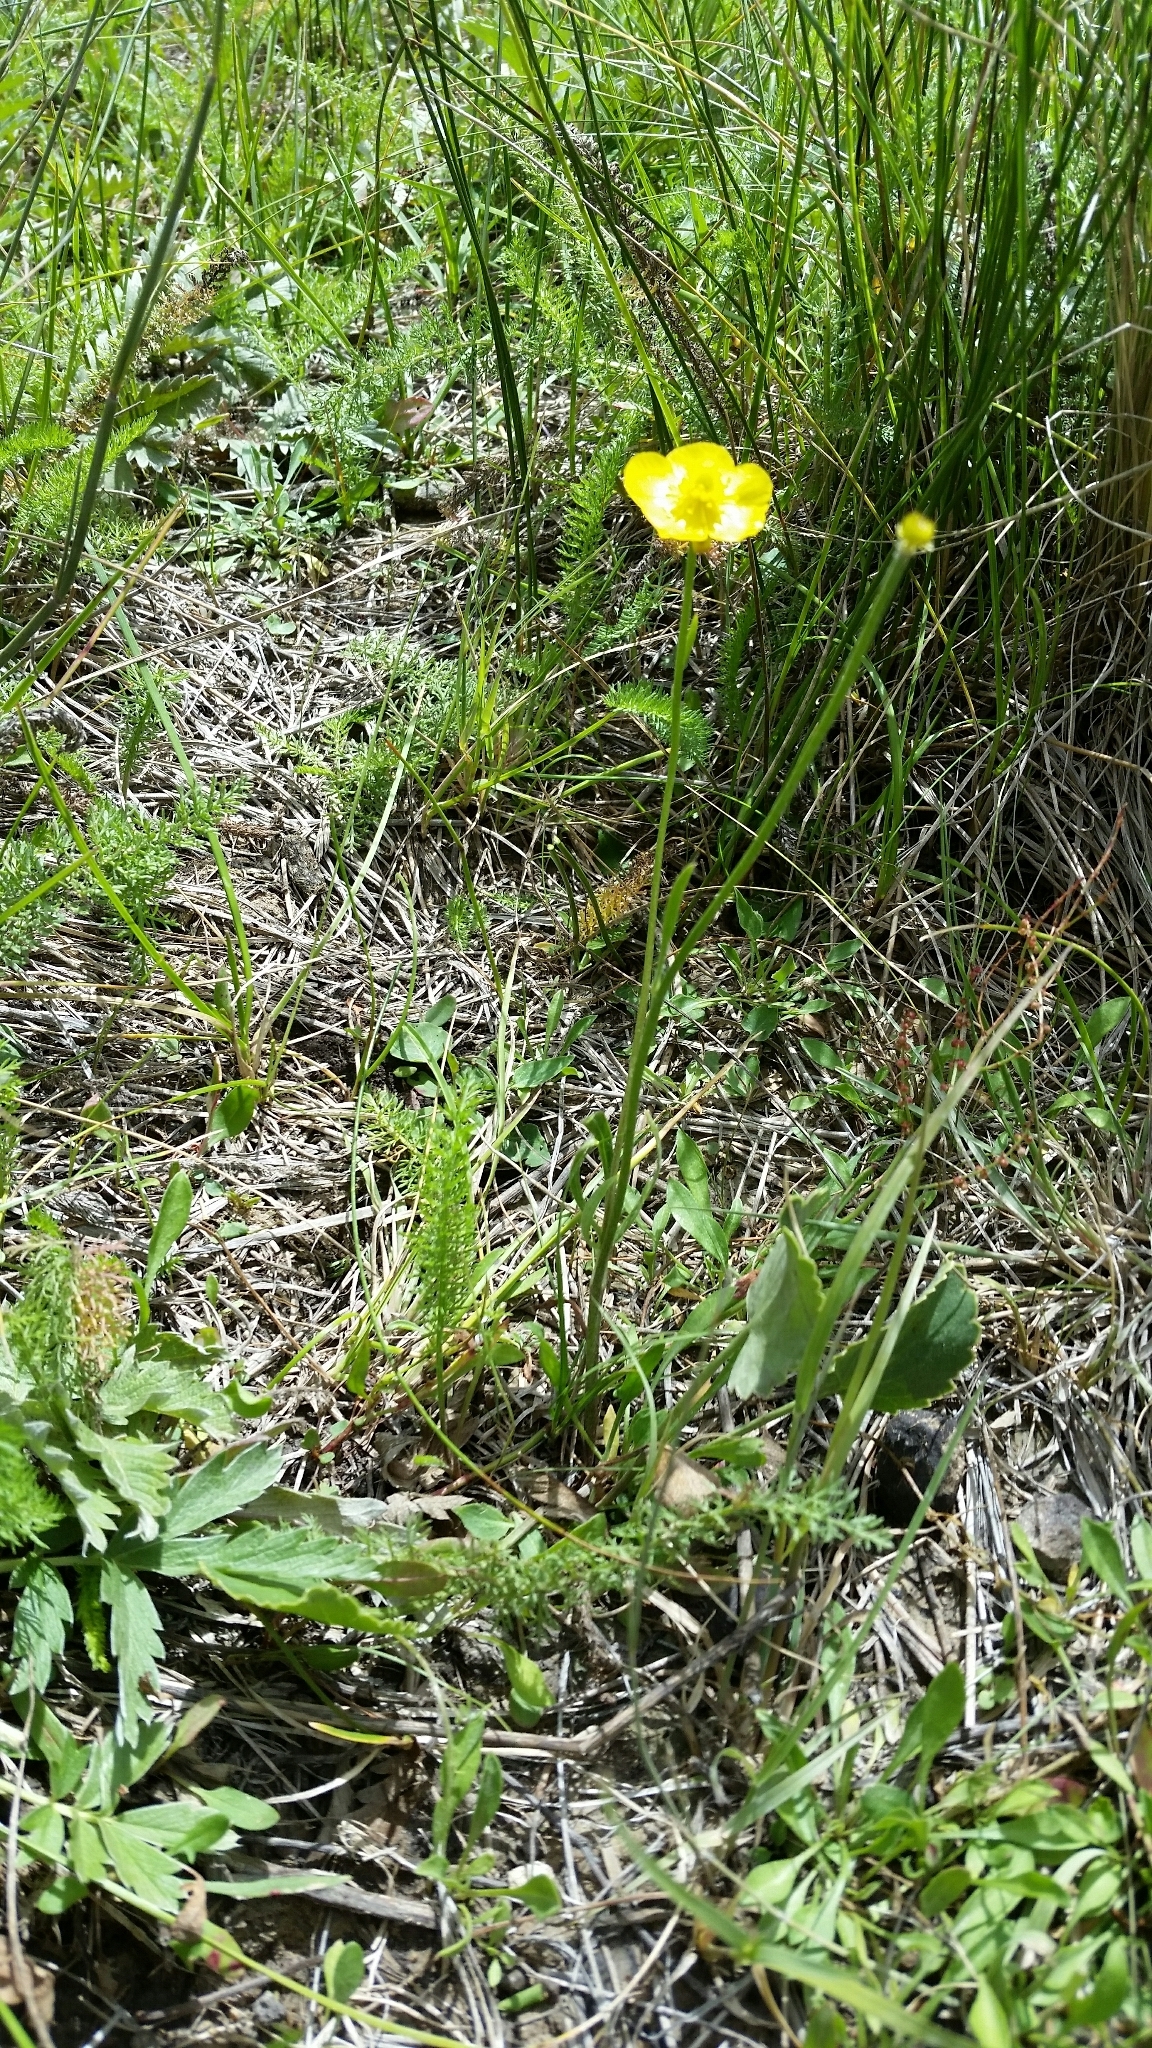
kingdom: Plantae
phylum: Tracheophyta
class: Magnoliopsida
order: Ranunculales
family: Ranunculaceae
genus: Ranunculus
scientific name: Ranunculus cardiophyllus
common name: Heart-leaved buttercup
